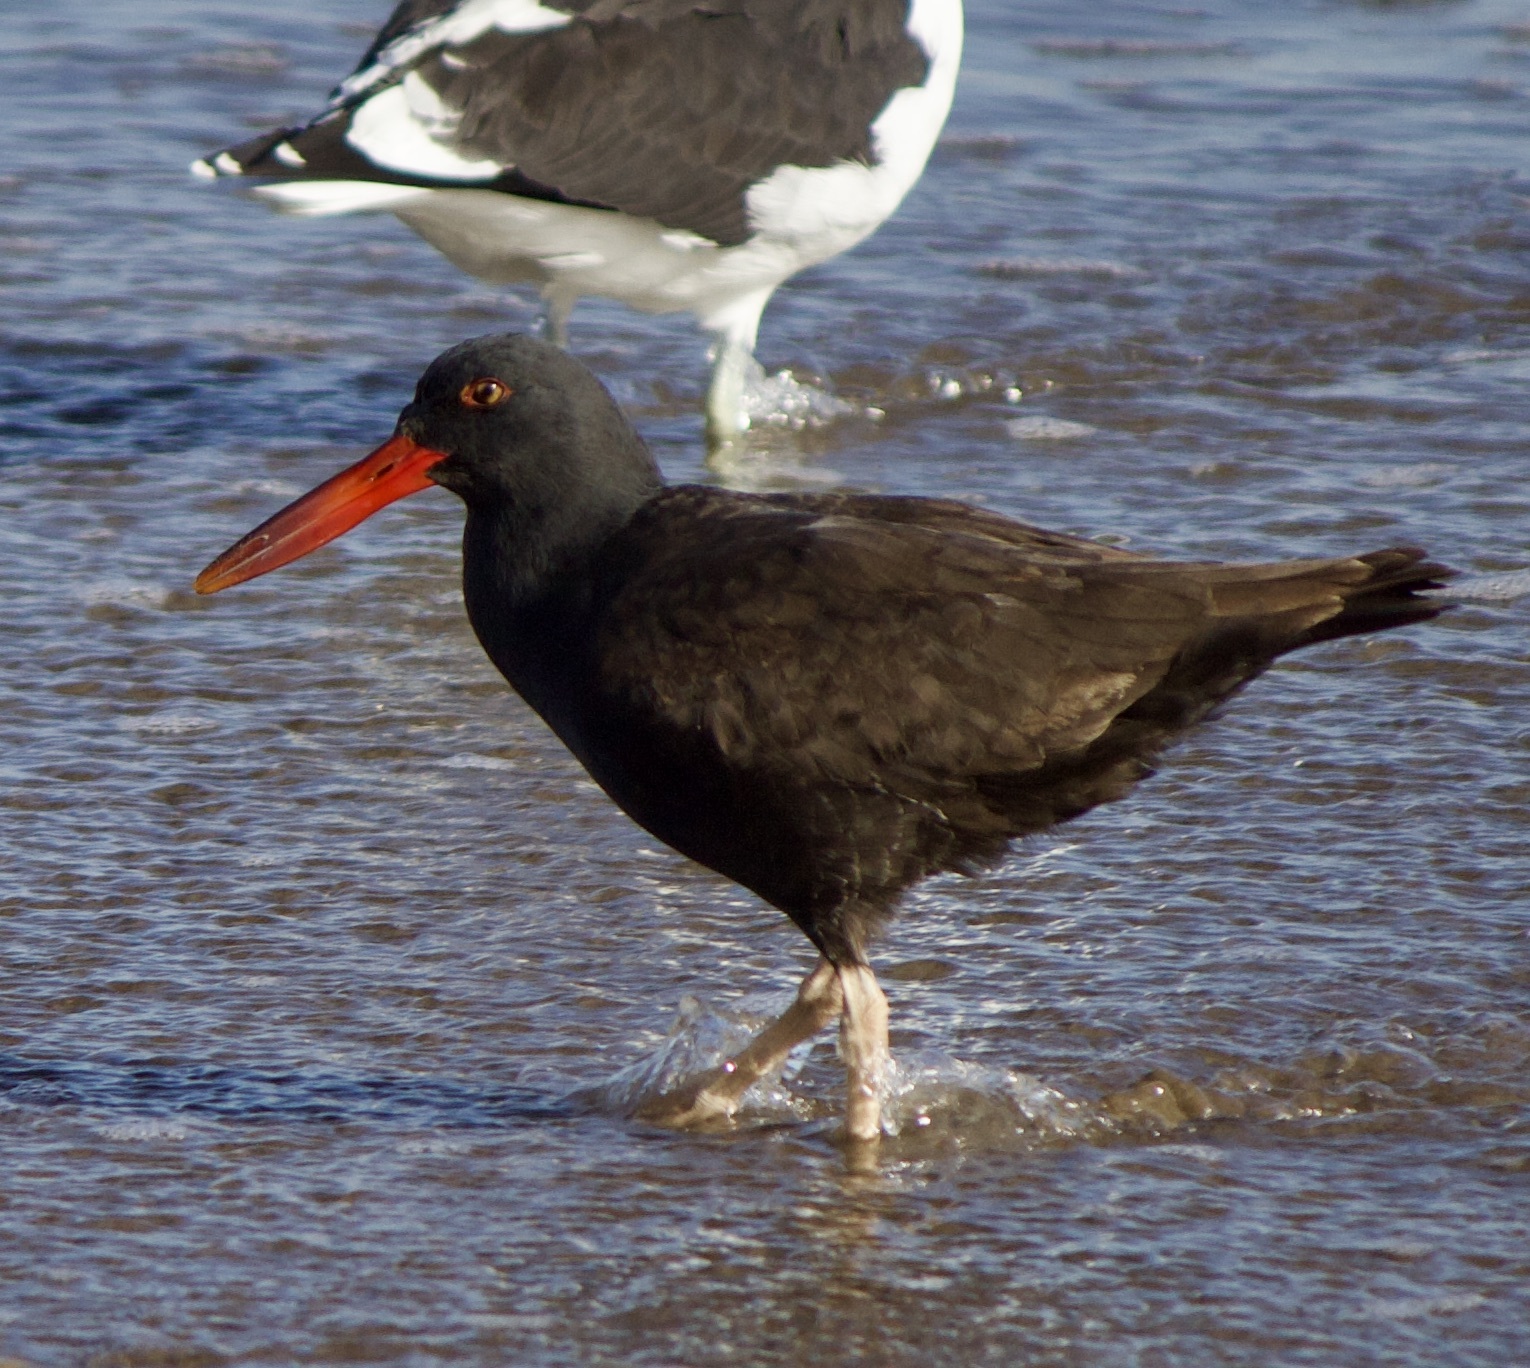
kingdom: Animalia
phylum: Chordata
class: Aves
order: Charadriiformes
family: Haematopodidae
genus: Haematopus
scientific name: Haematopus ater
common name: Blackish oystercatcher
